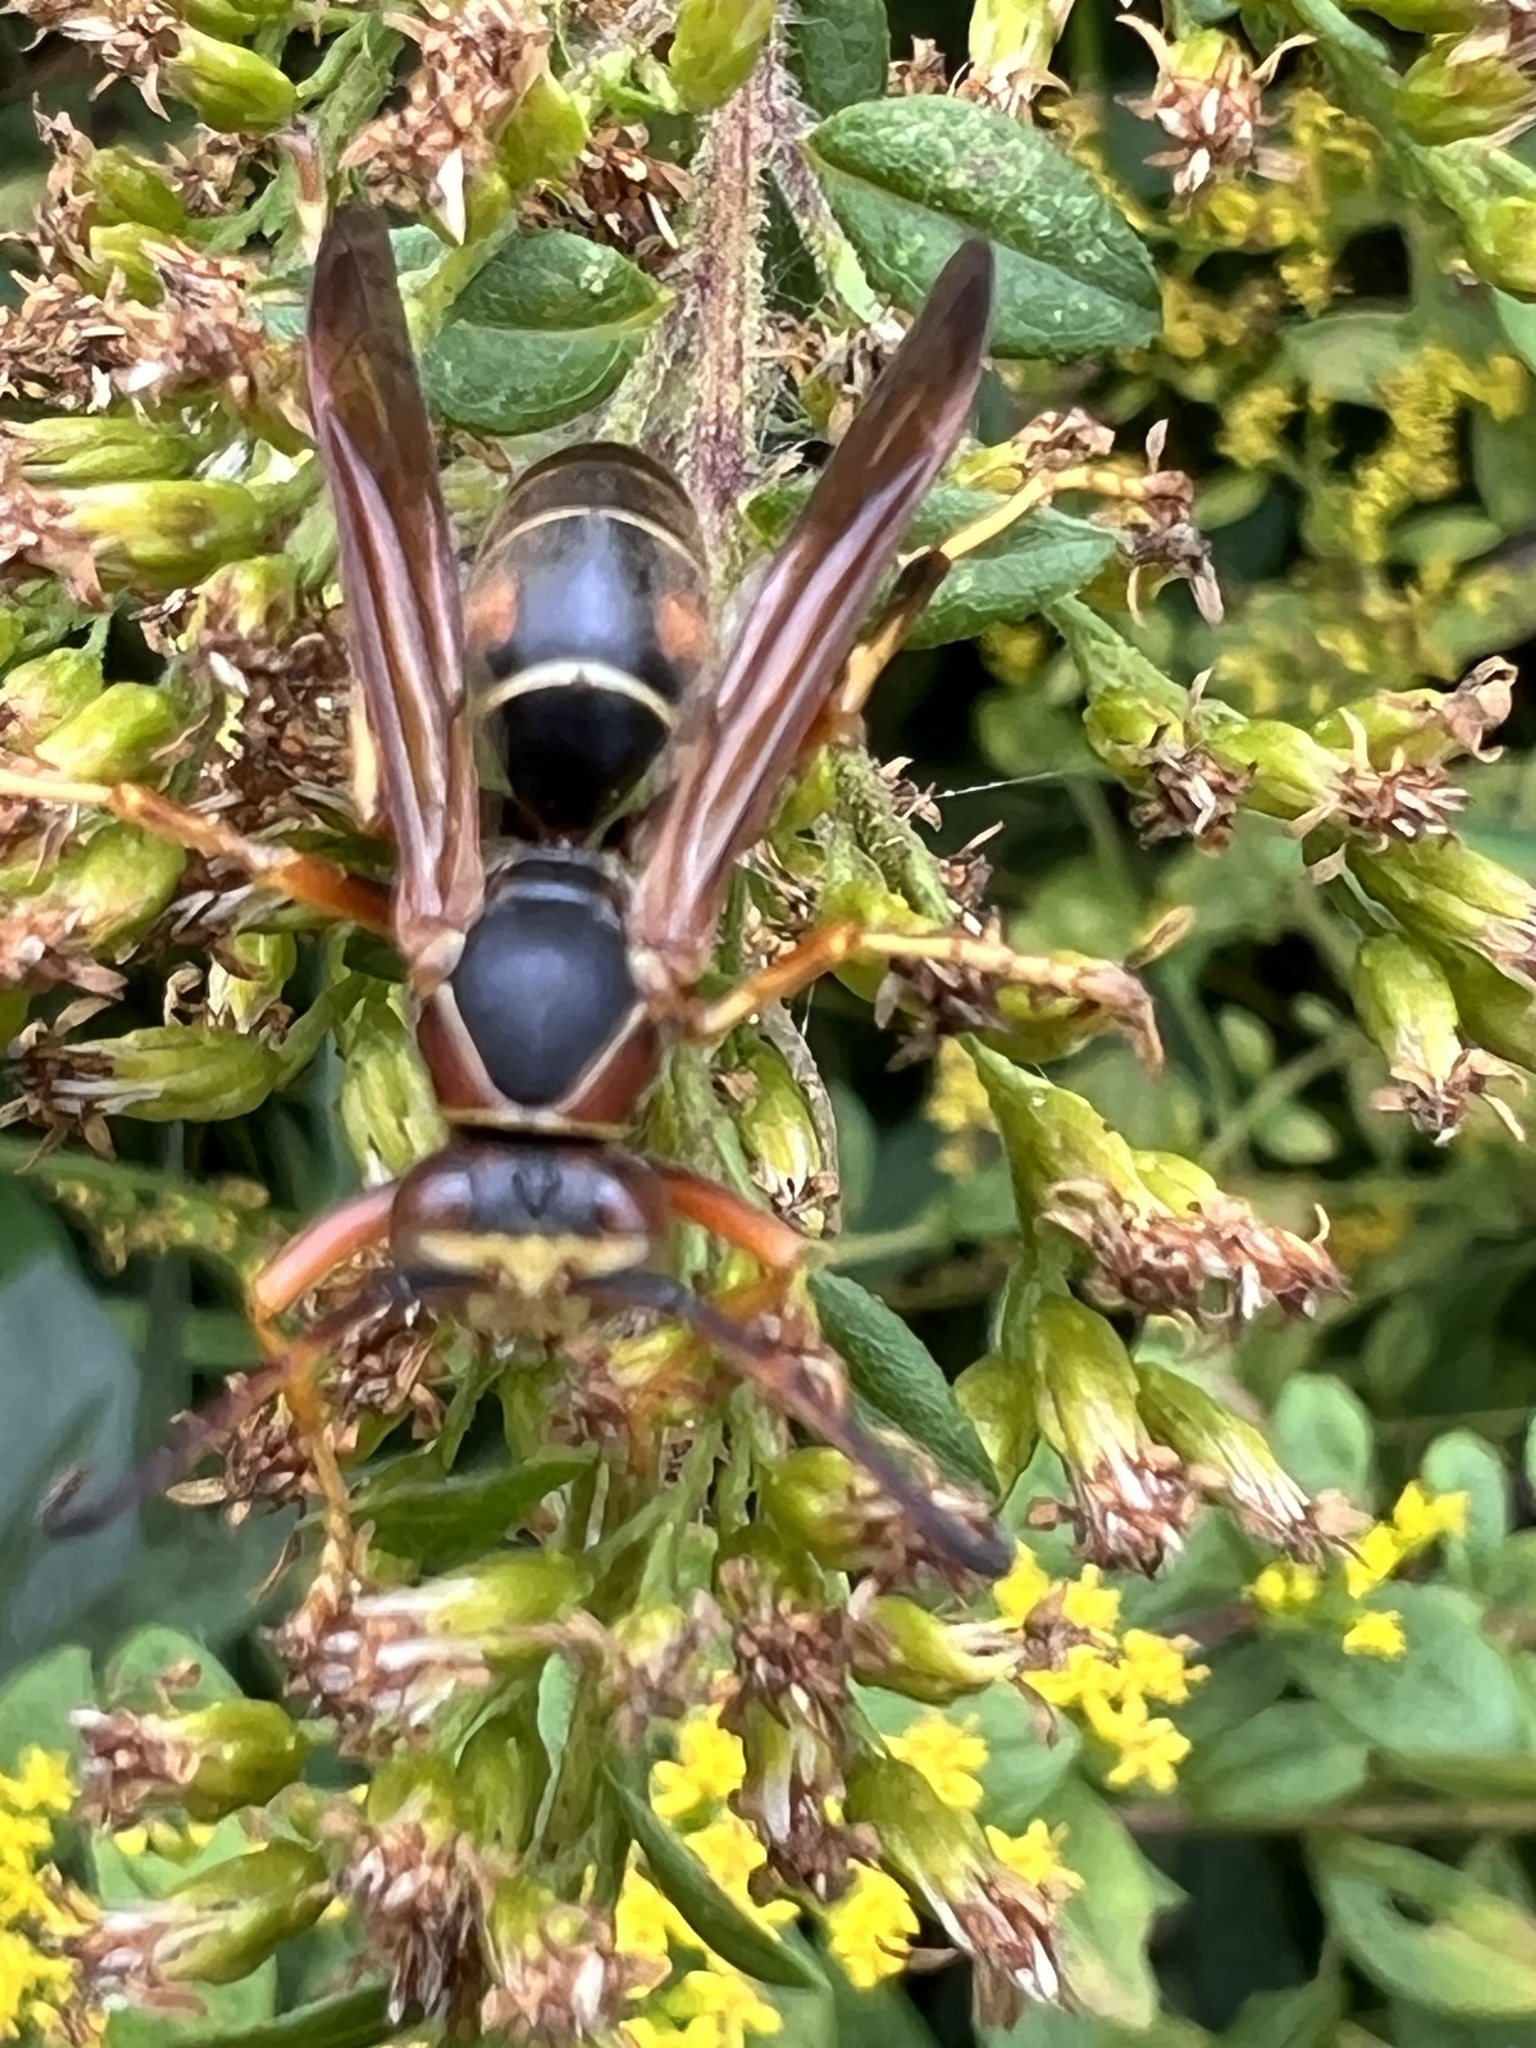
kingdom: Animalia
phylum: Arthropoda
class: Insecta
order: Hymenoptera
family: Eumenidae
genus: Polistes
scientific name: Polistes fuscatus
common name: Dark paper wasp
